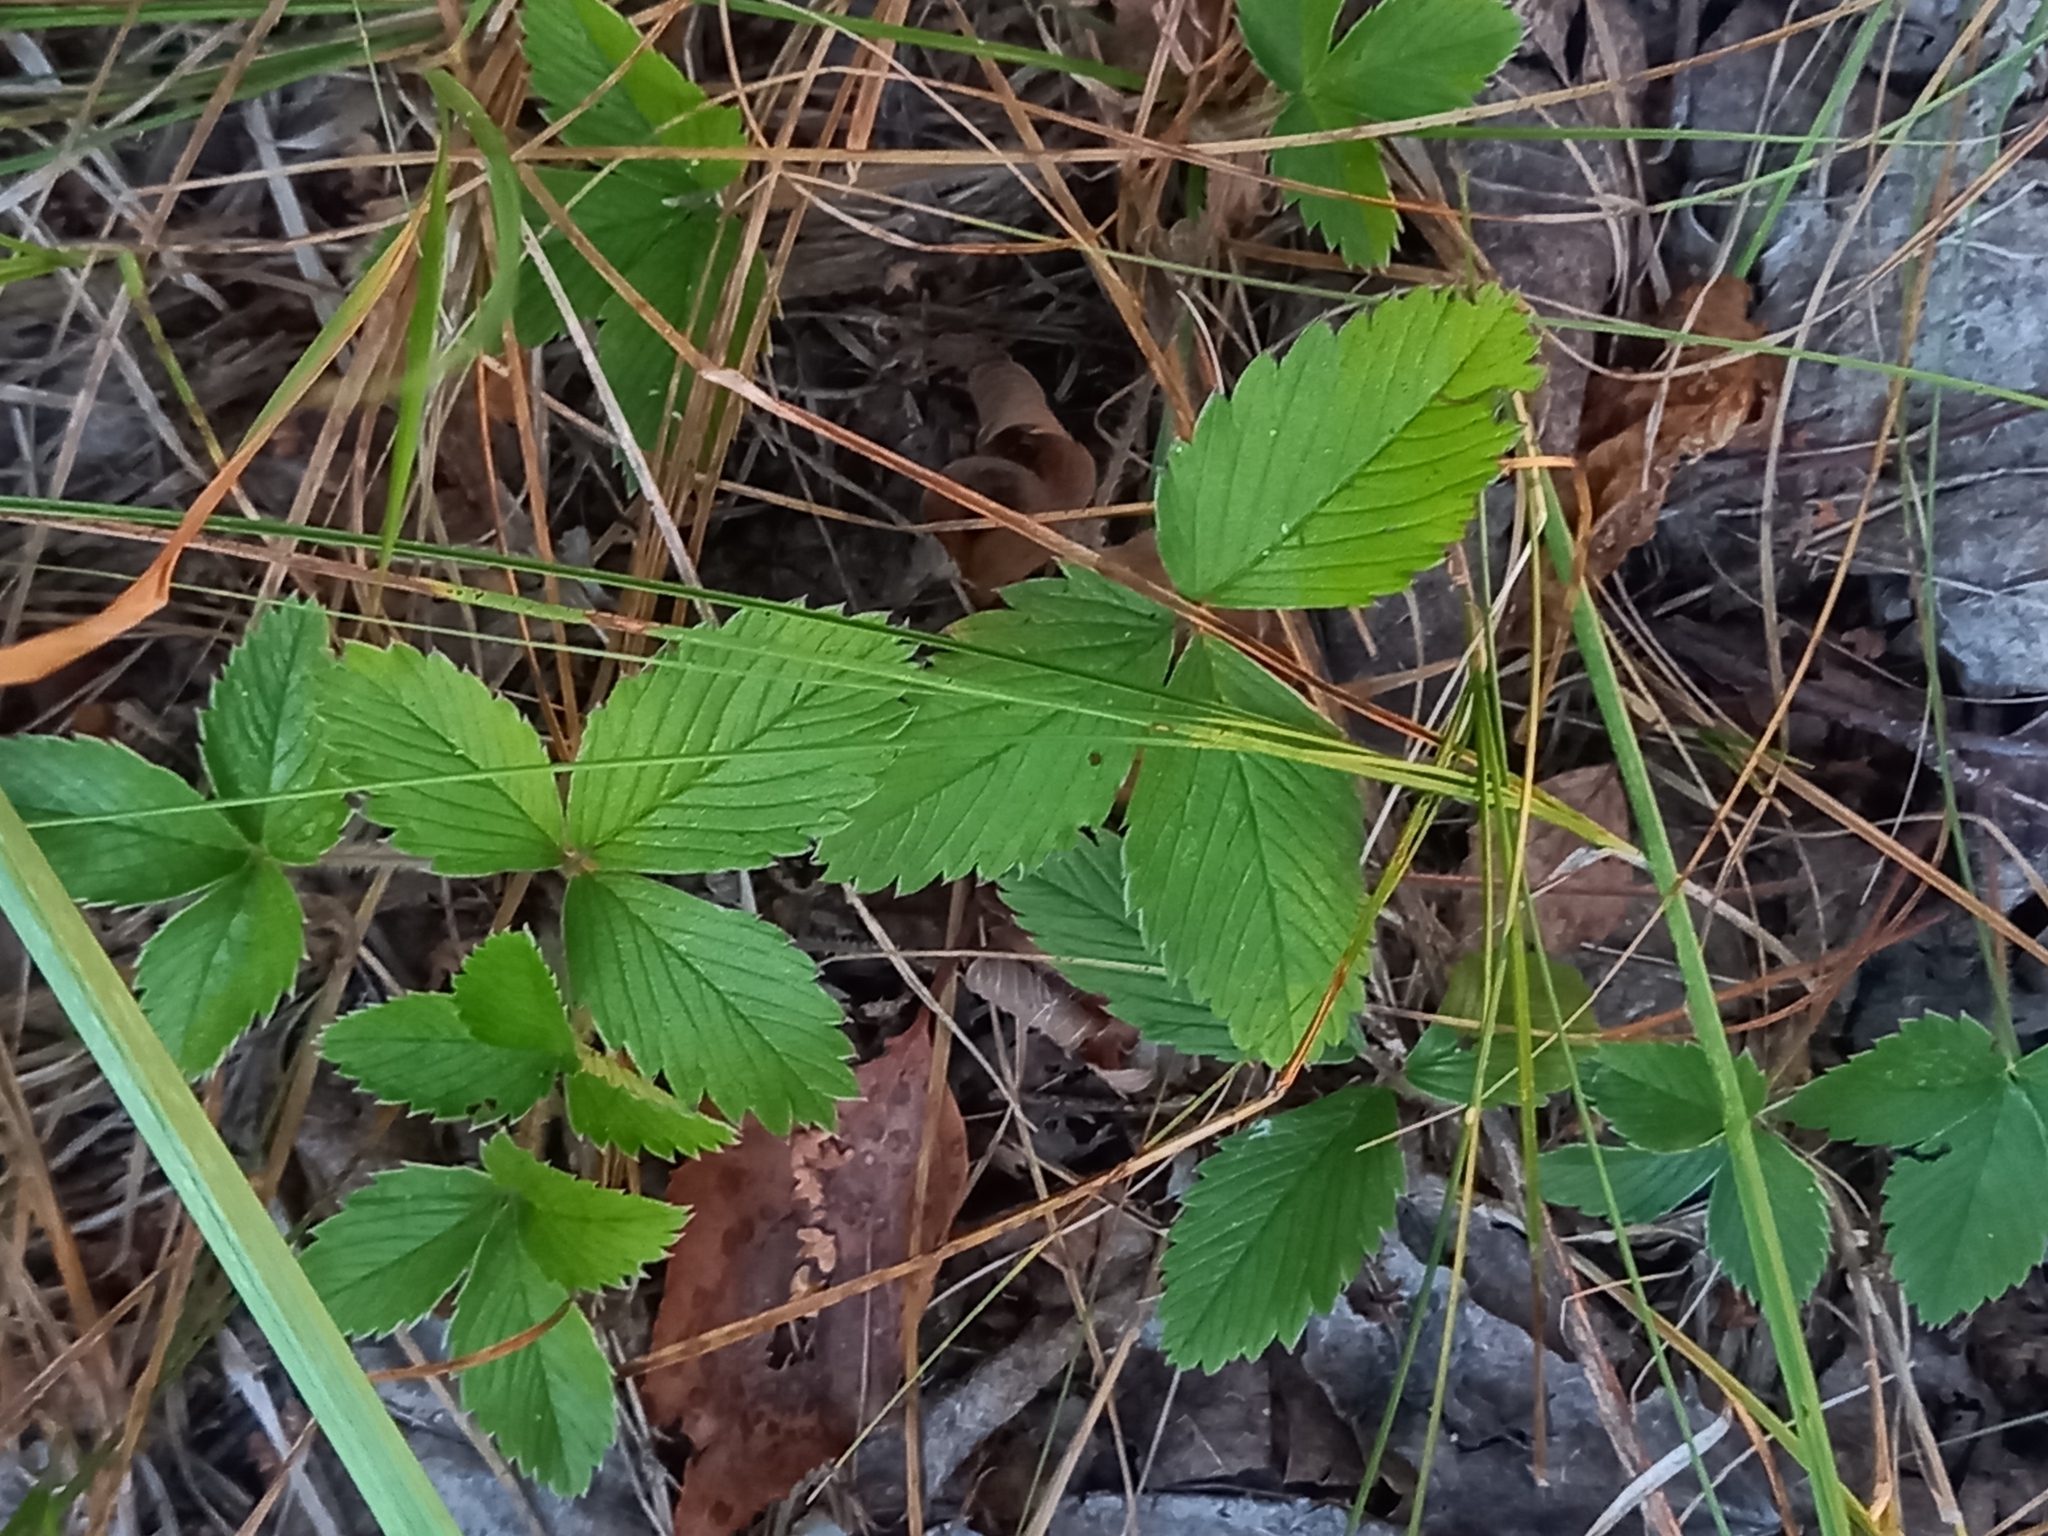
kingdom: Plantae
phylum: Tracheophyta
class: Magnoliopsida
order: Rosales
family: Rosaceae
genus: Fragaria
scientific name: Fragaria viridis
